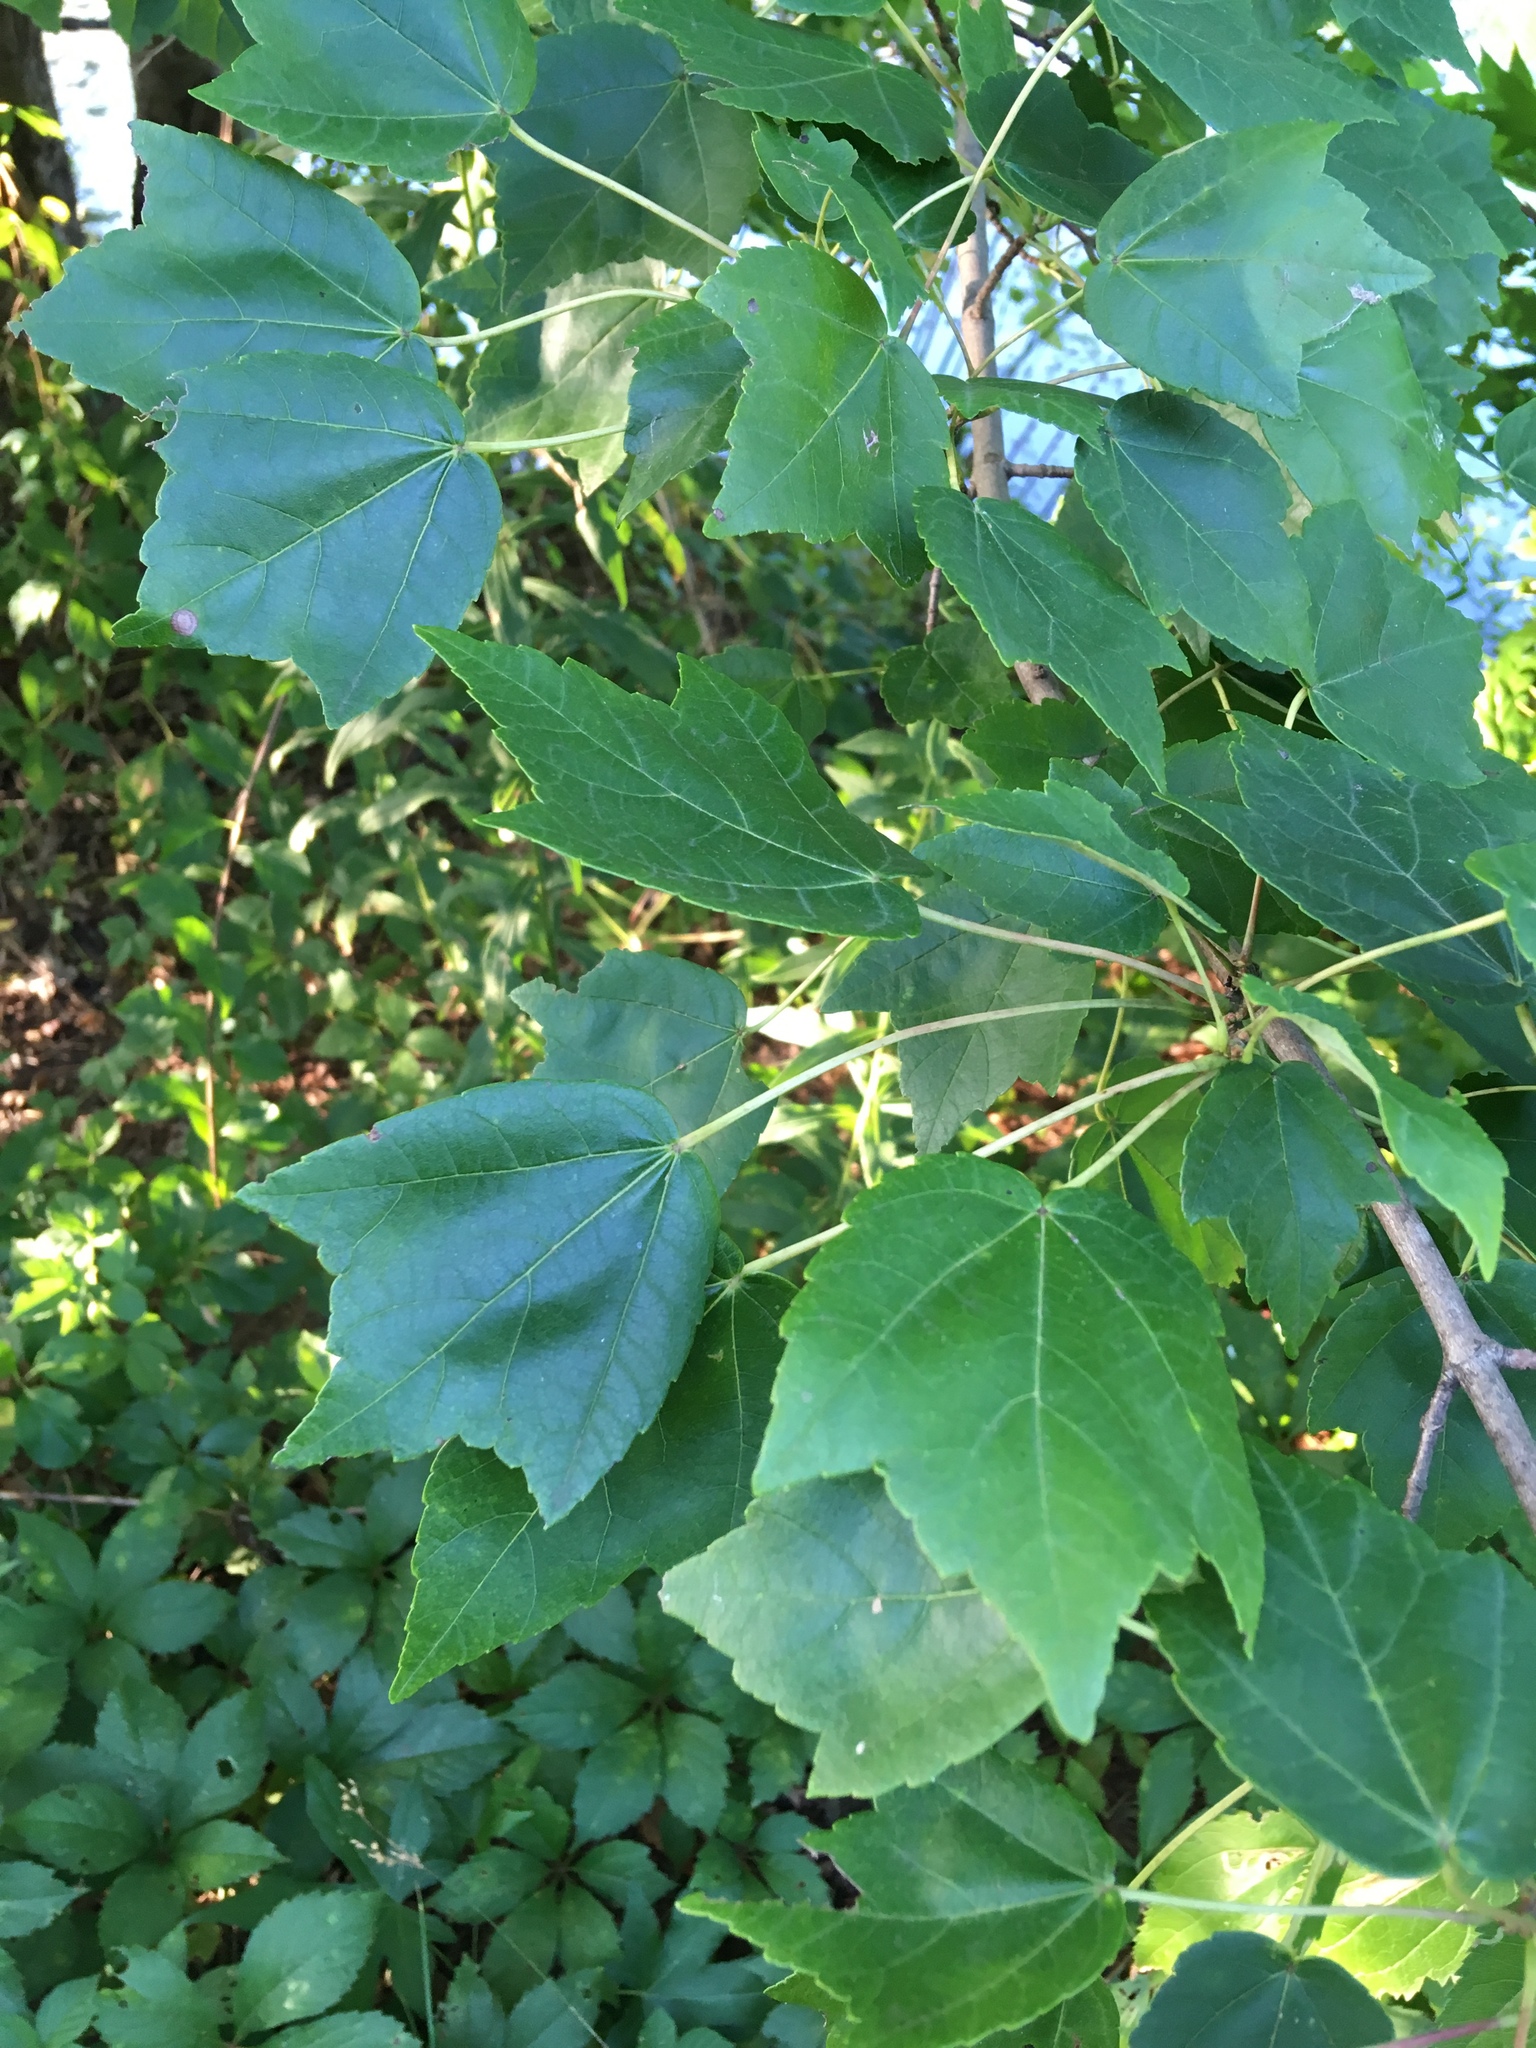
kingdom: Plantae
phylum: Tracheophyta
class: Magnoliopsida
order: Sapindales
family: Sapindaceae
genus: Acer
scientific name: Acer rubrum
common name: Red maple
